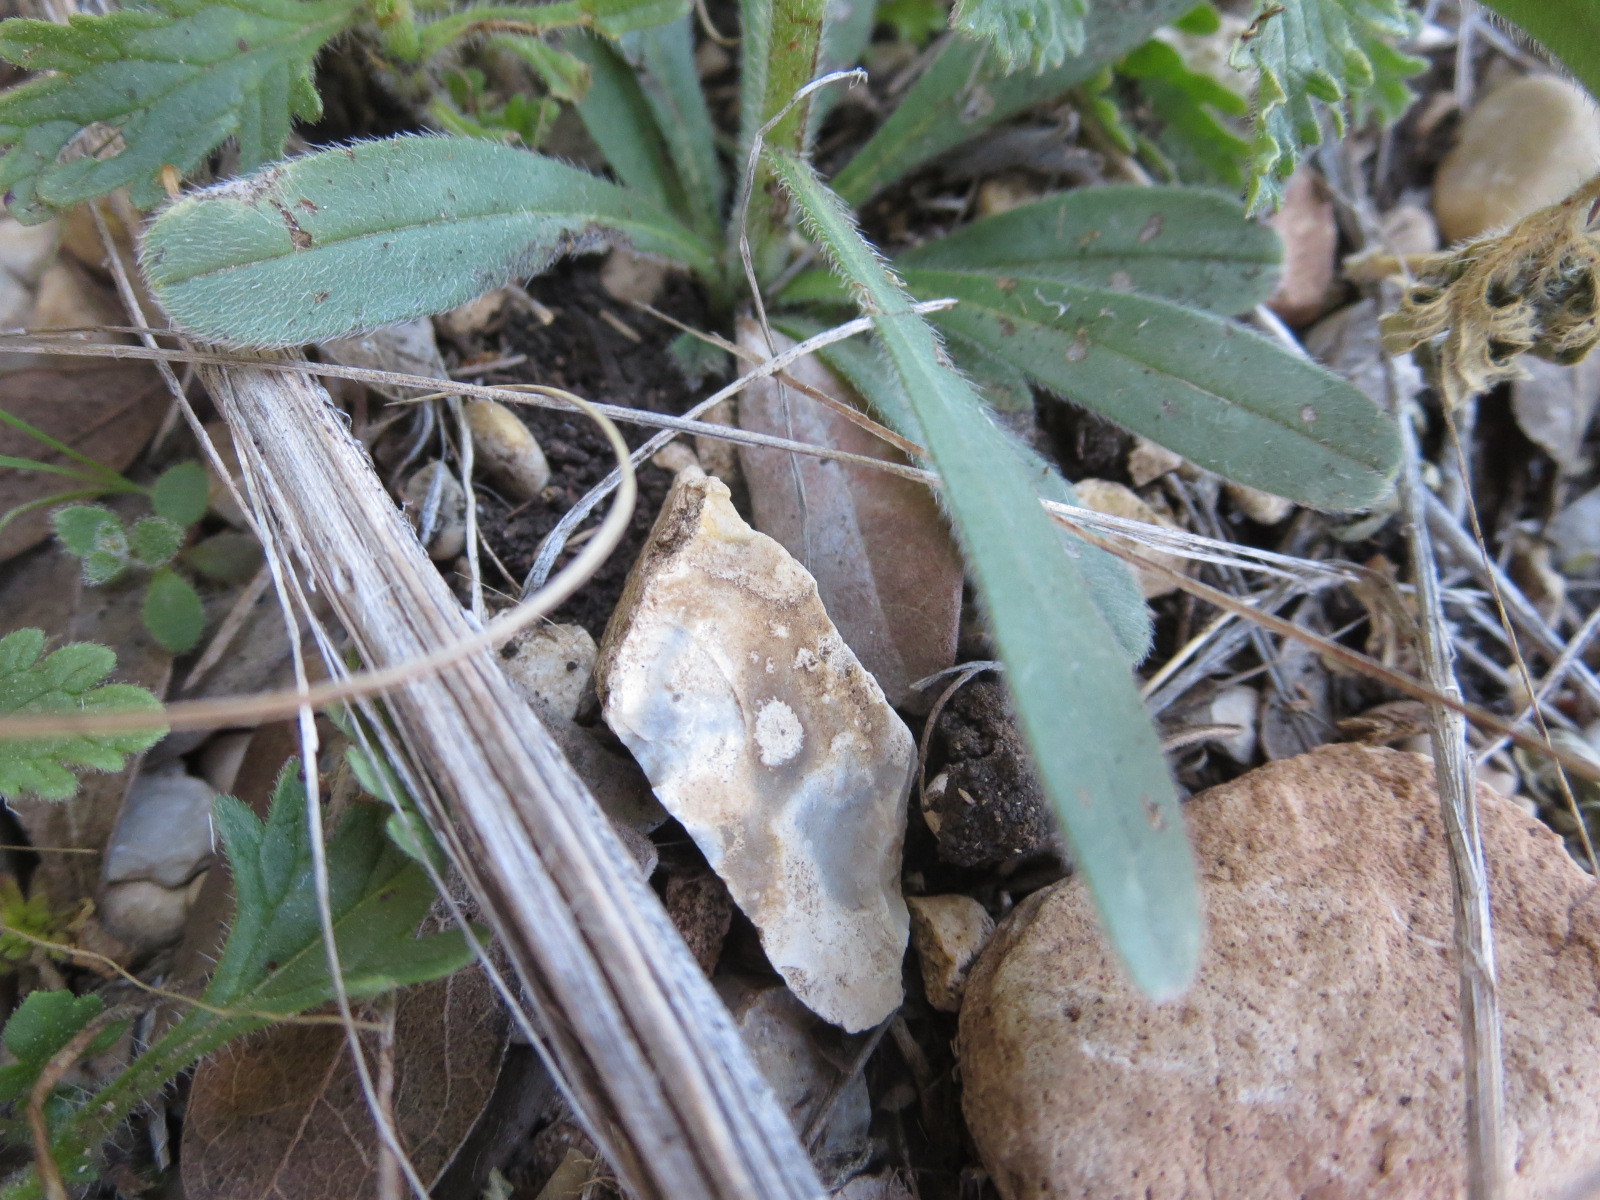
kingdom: Plantae
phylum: Tracheophyta
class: Magnoliopsida
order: Boraginales
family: Boraginaceae
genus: Lithospermum
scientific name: Lithospermum mirabile
